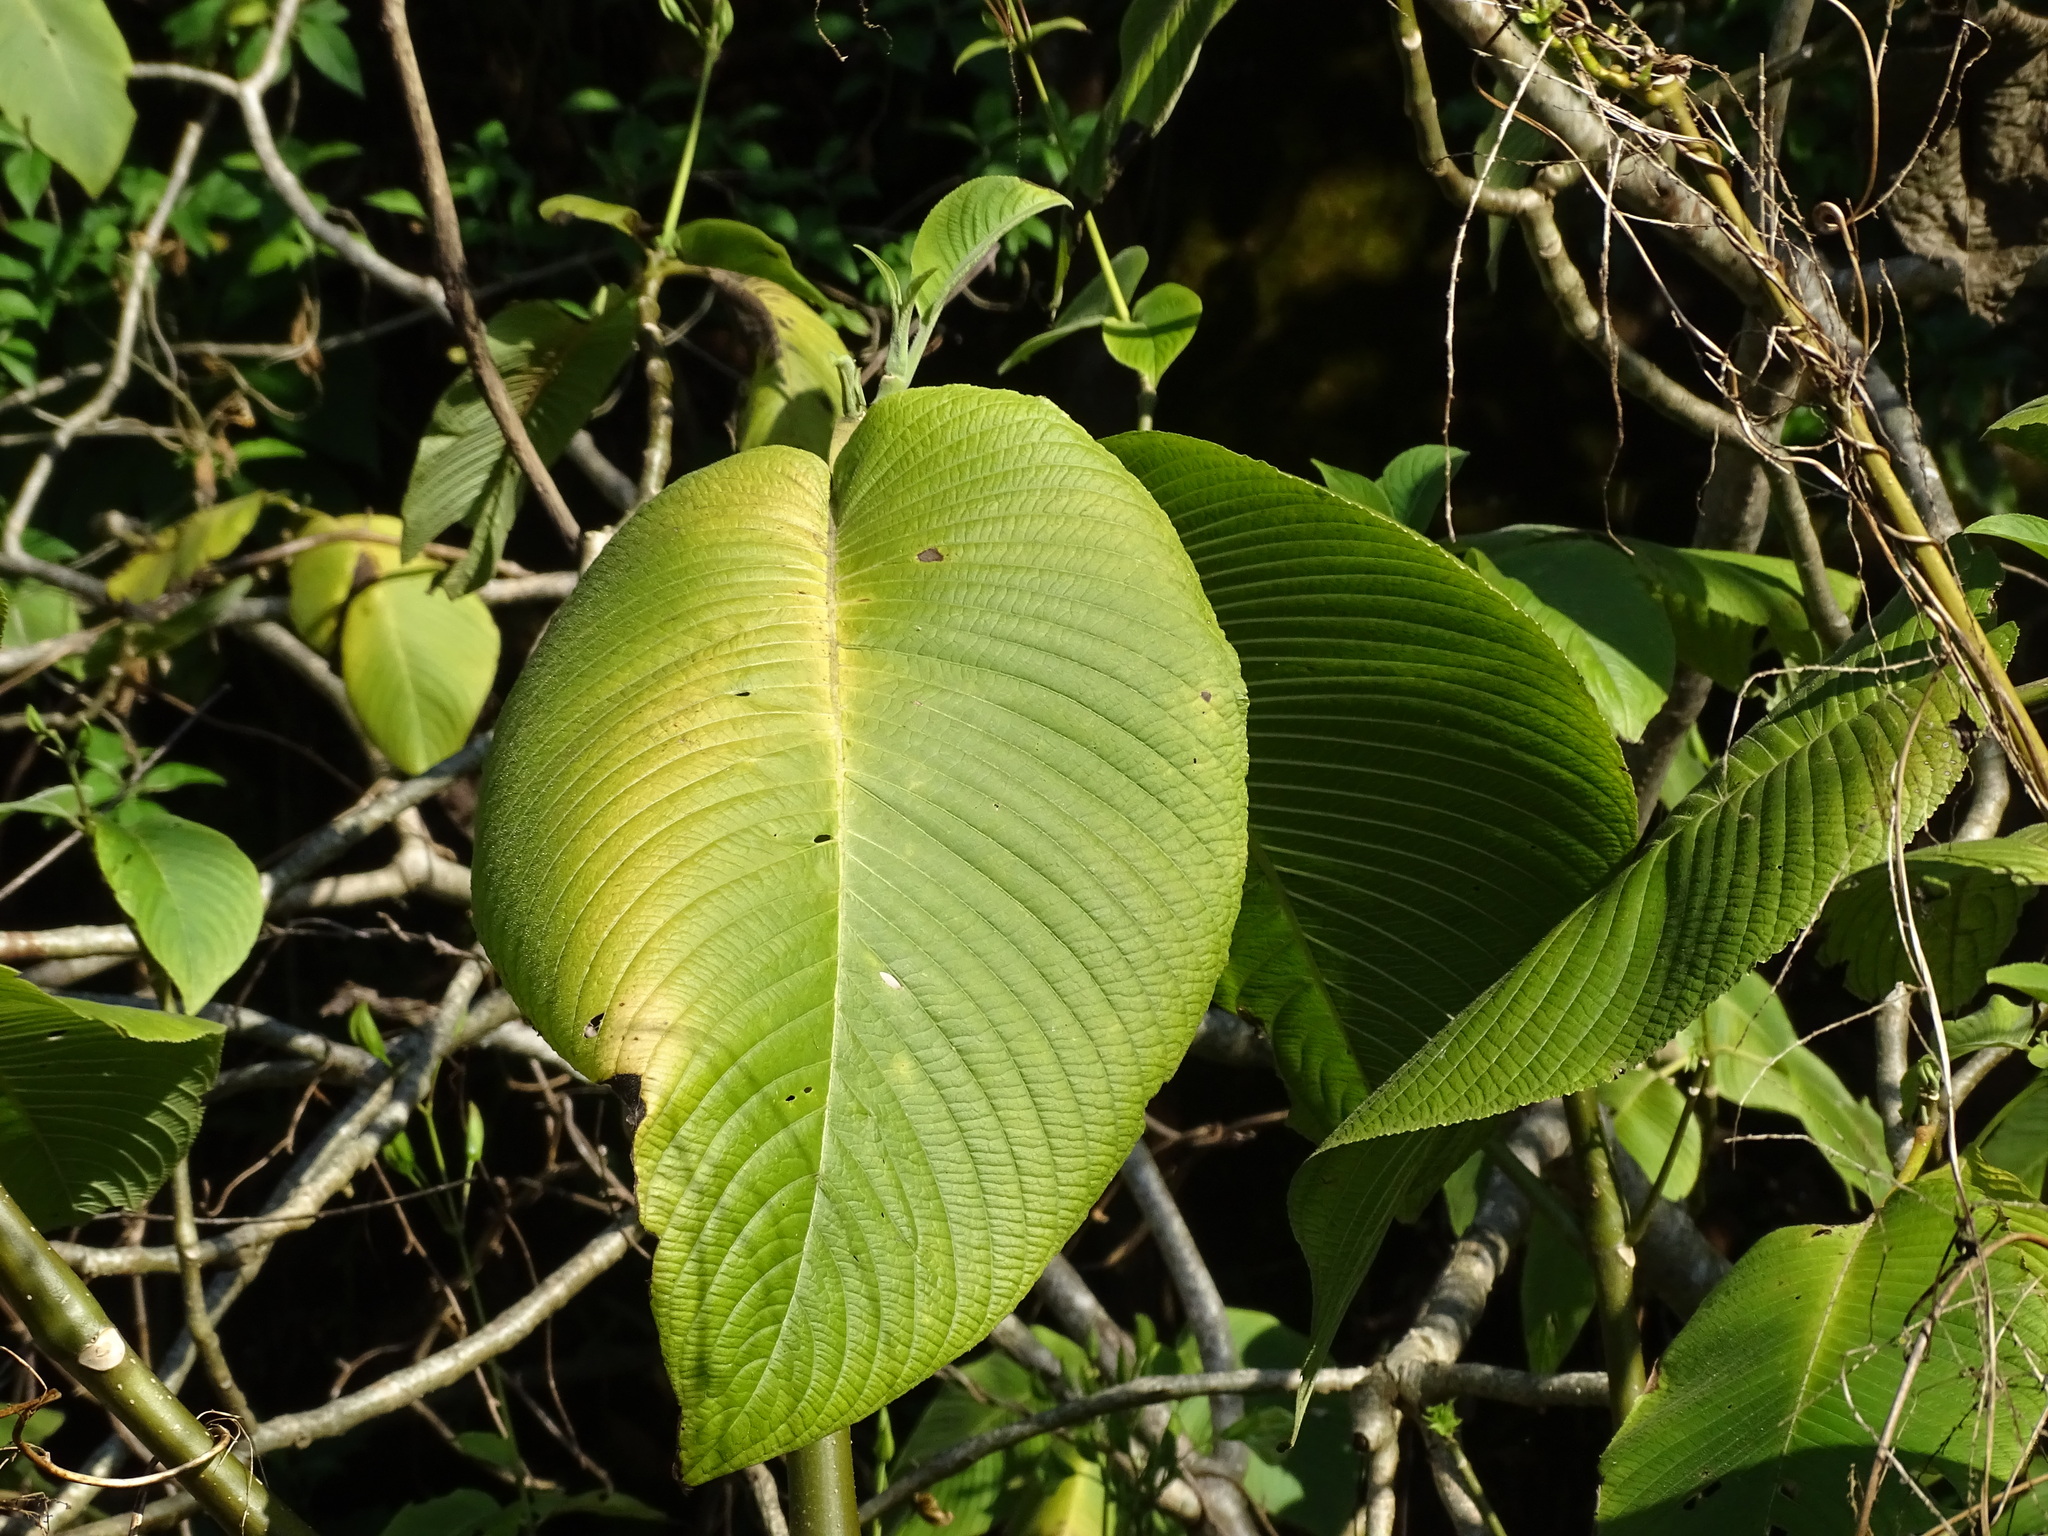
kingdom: Plantae
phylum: Tracheophyta
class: Magnoliopsida
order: Lamiales
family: Acanthaceae
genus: Louteridium
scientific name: Louteridium purpusii
